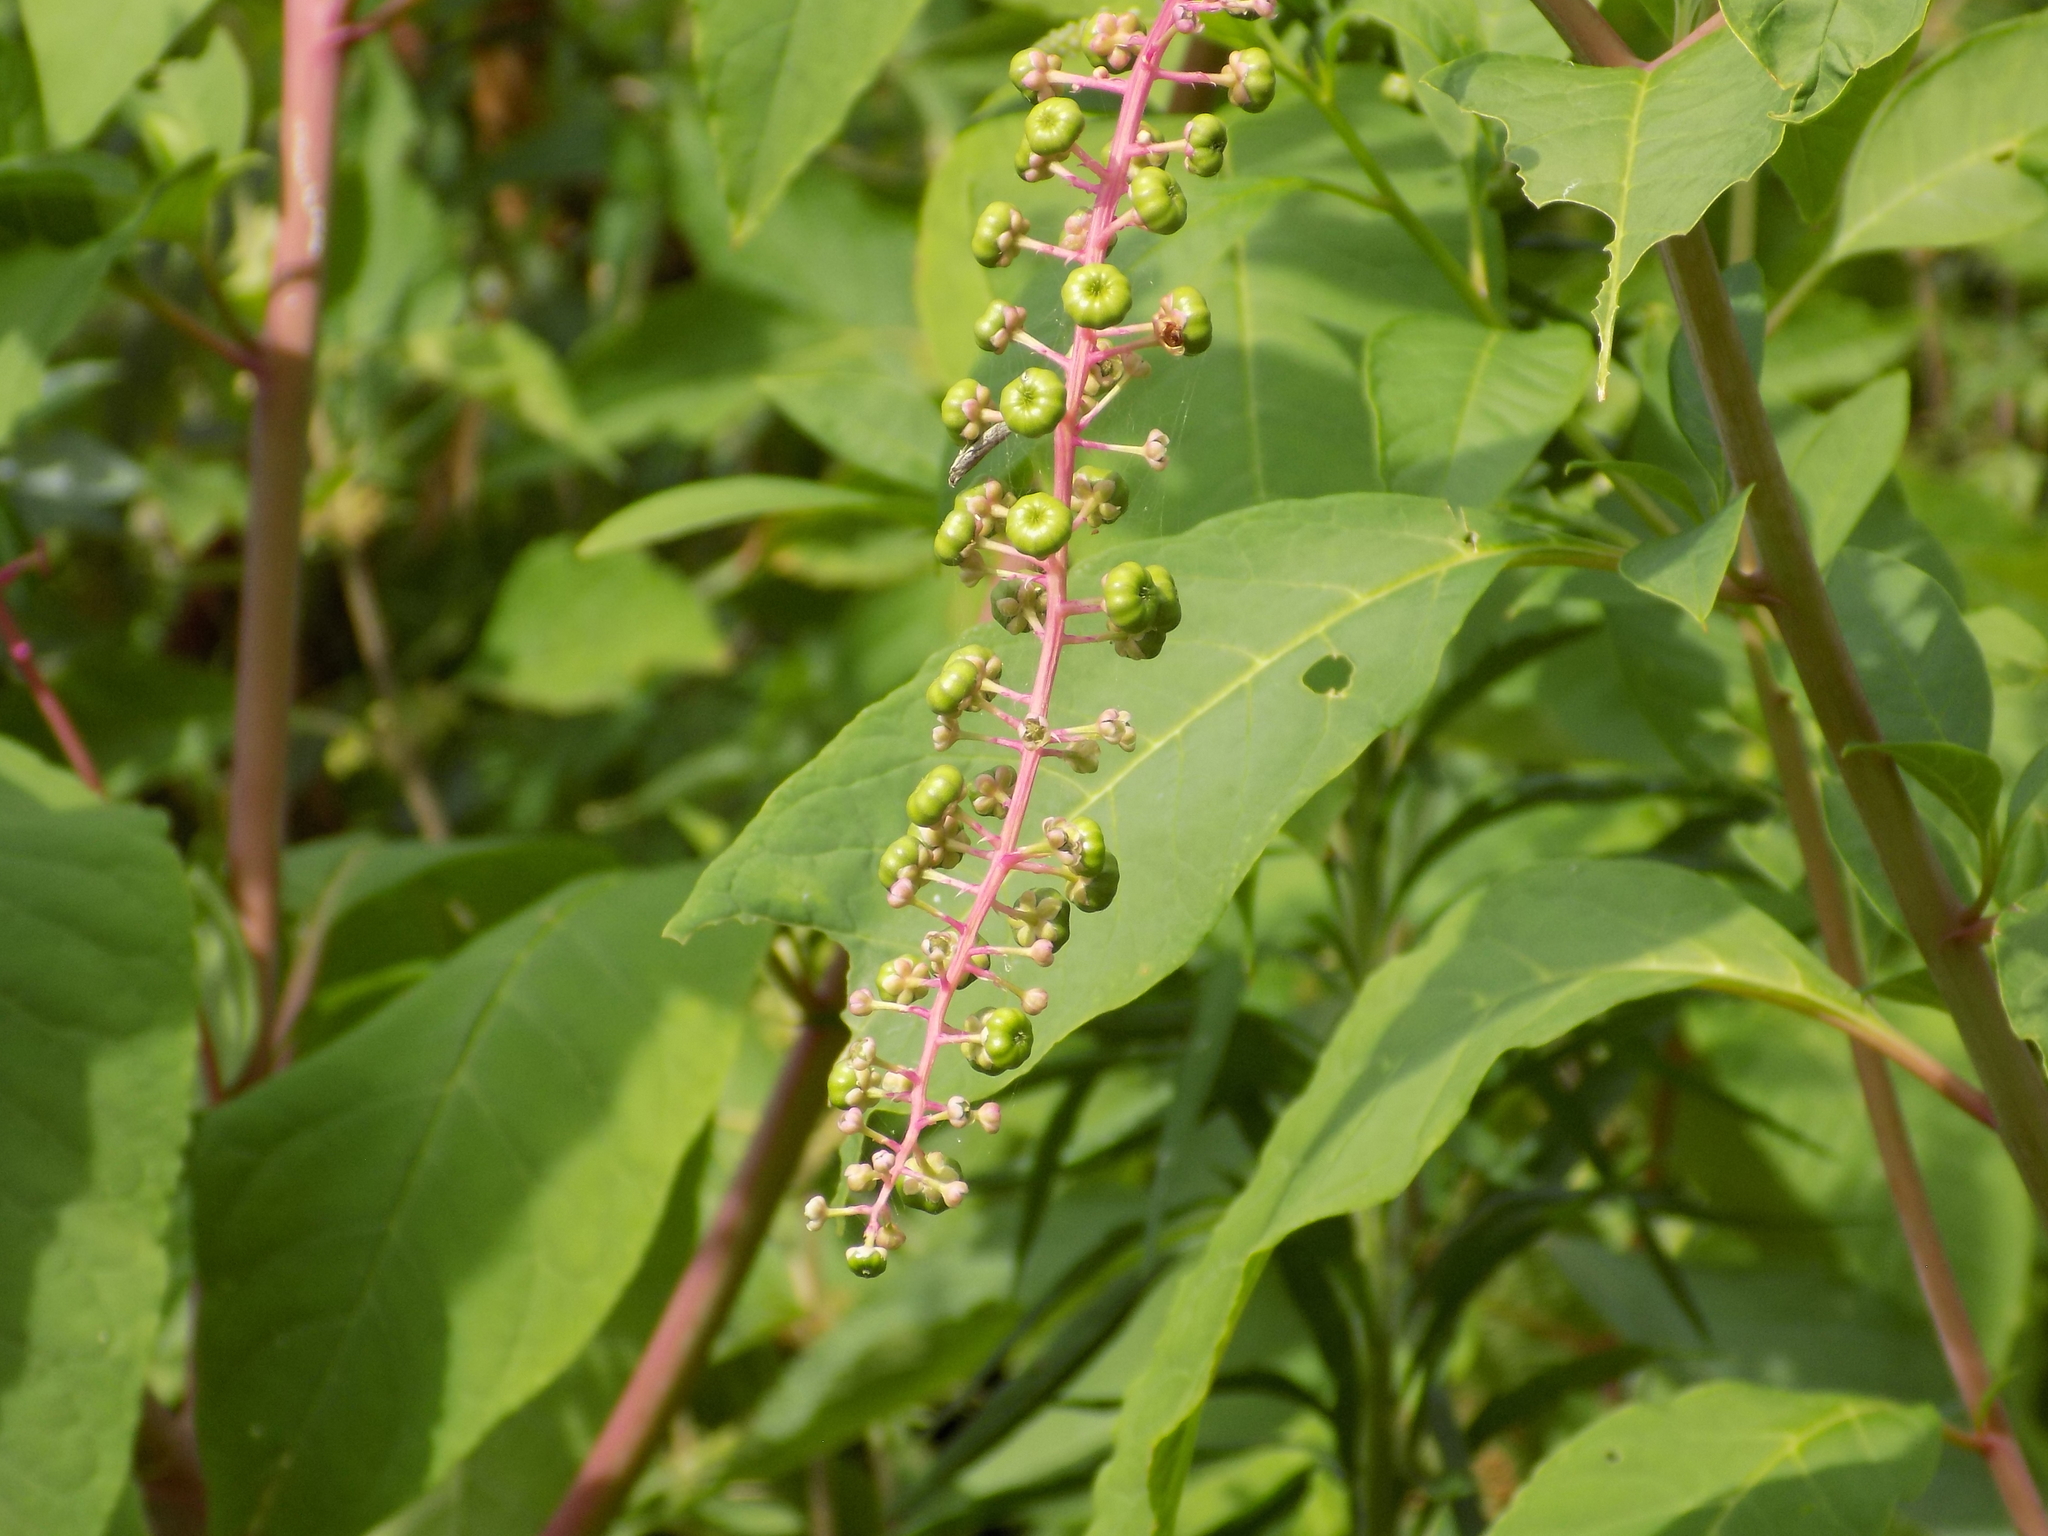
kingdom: Plantae
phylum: Tracheophyta
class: Magnoliopsida
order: Caryophyllales
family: Phytolaccaceae
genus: Phytolacca
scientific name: Phytolacca americana
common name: American pokeweed
